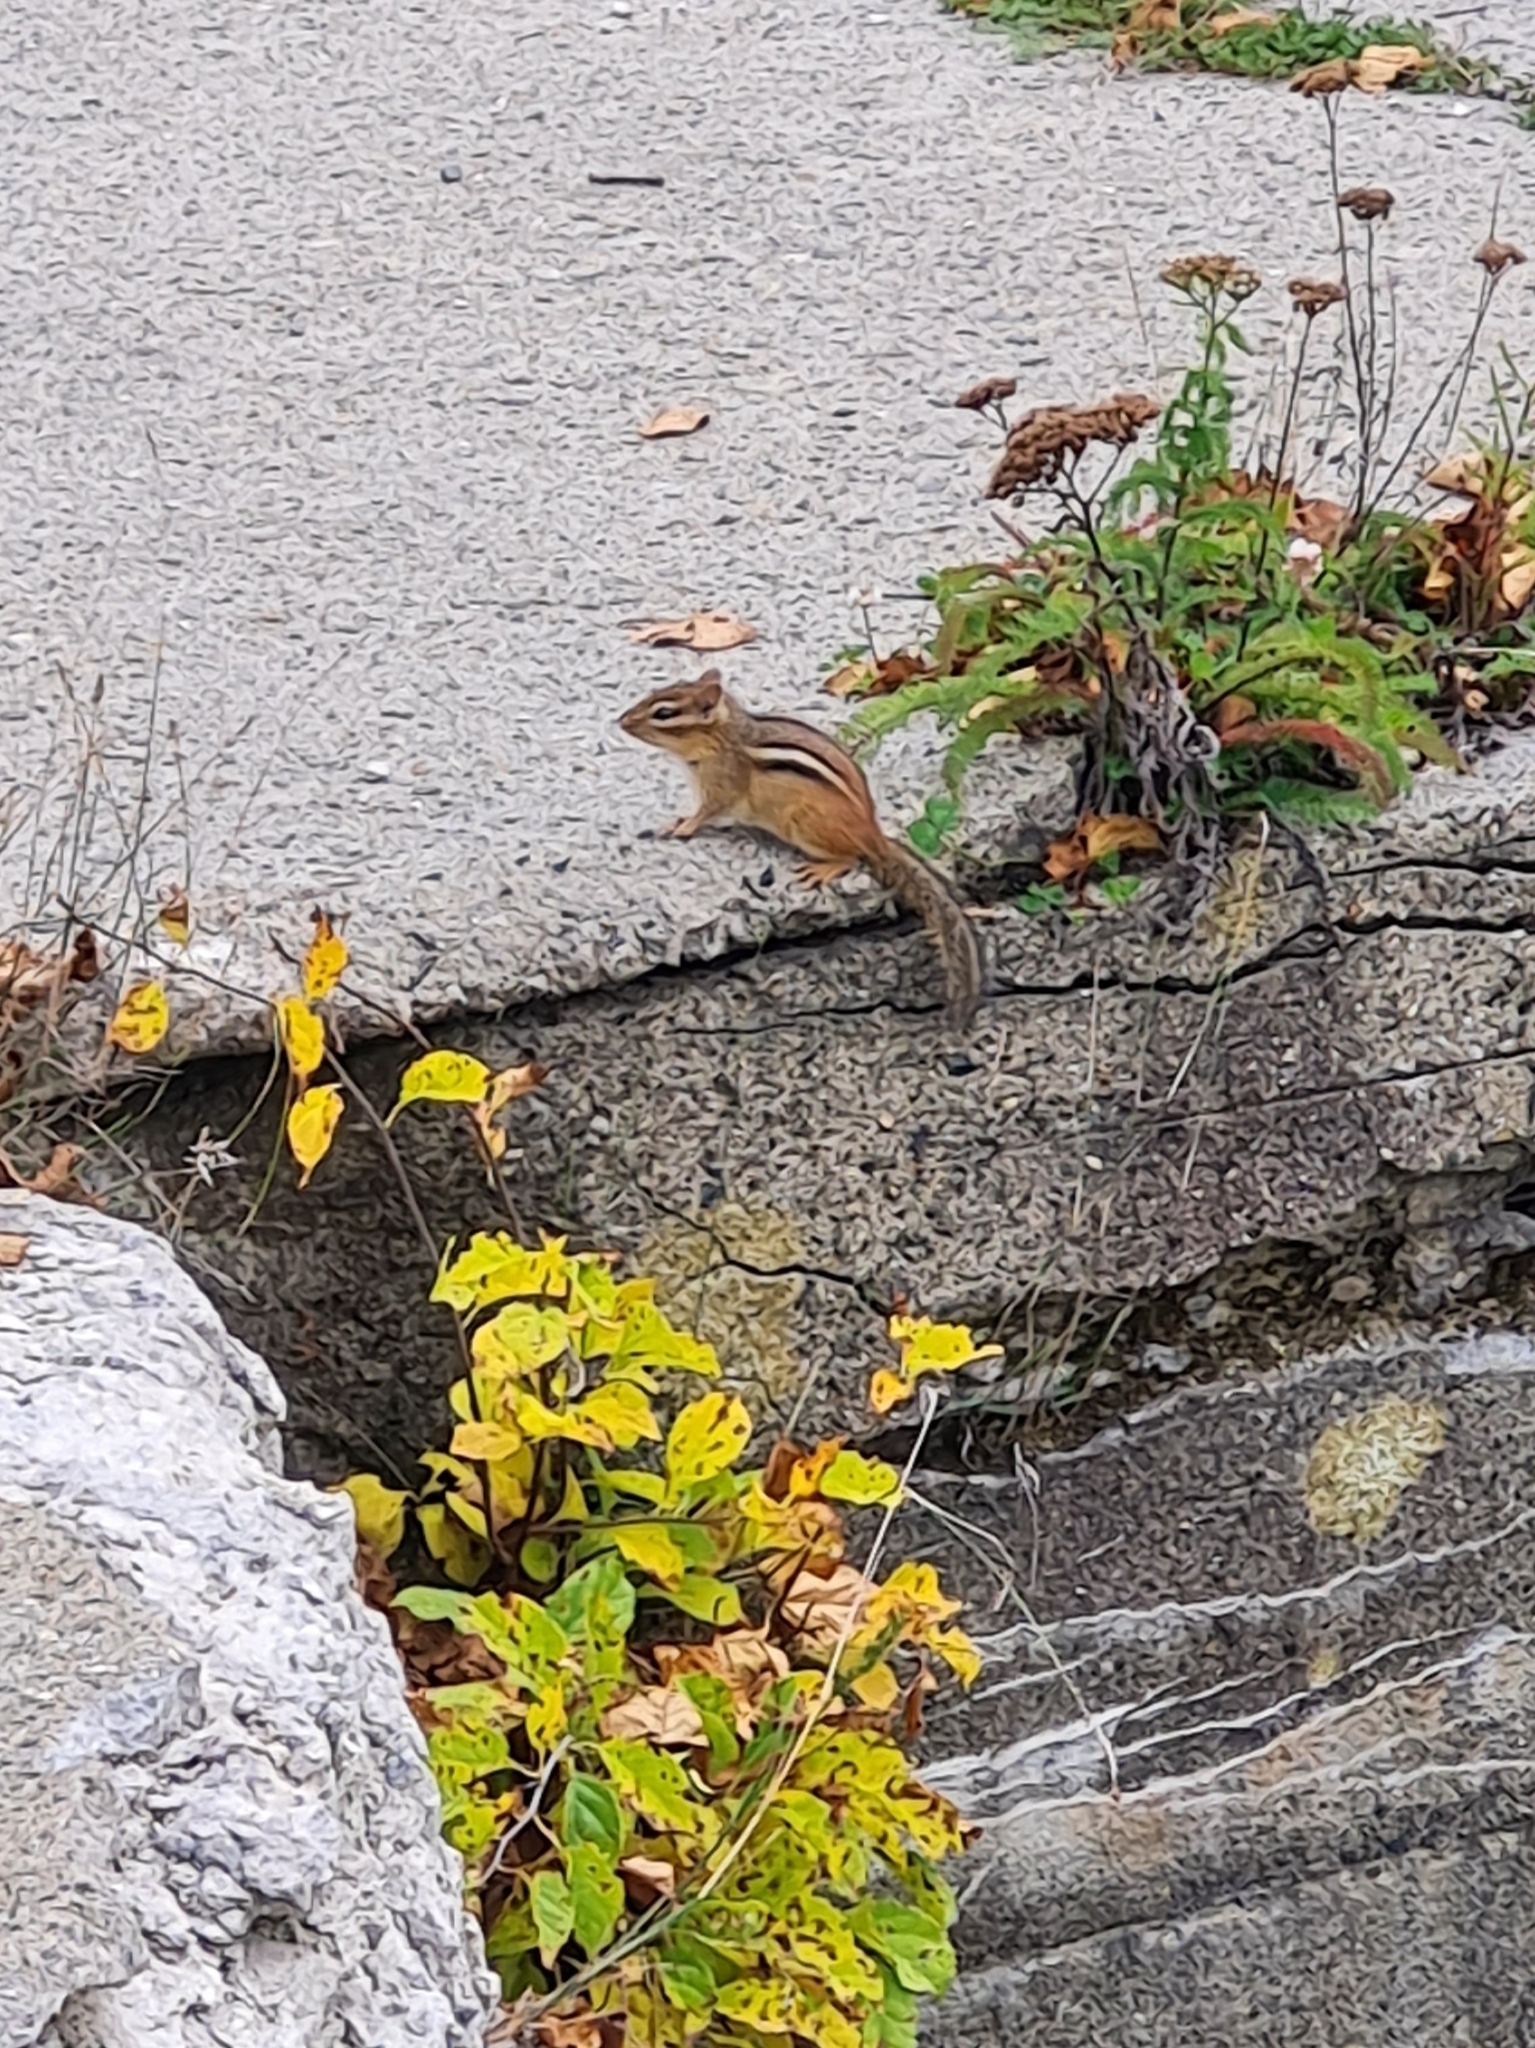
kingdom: Animalia
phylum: Chordata
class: Mammalia
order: Rodentia
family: Sciuridae
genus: Tamias
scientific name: Tamias striatus
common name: Eastern chipmunk
